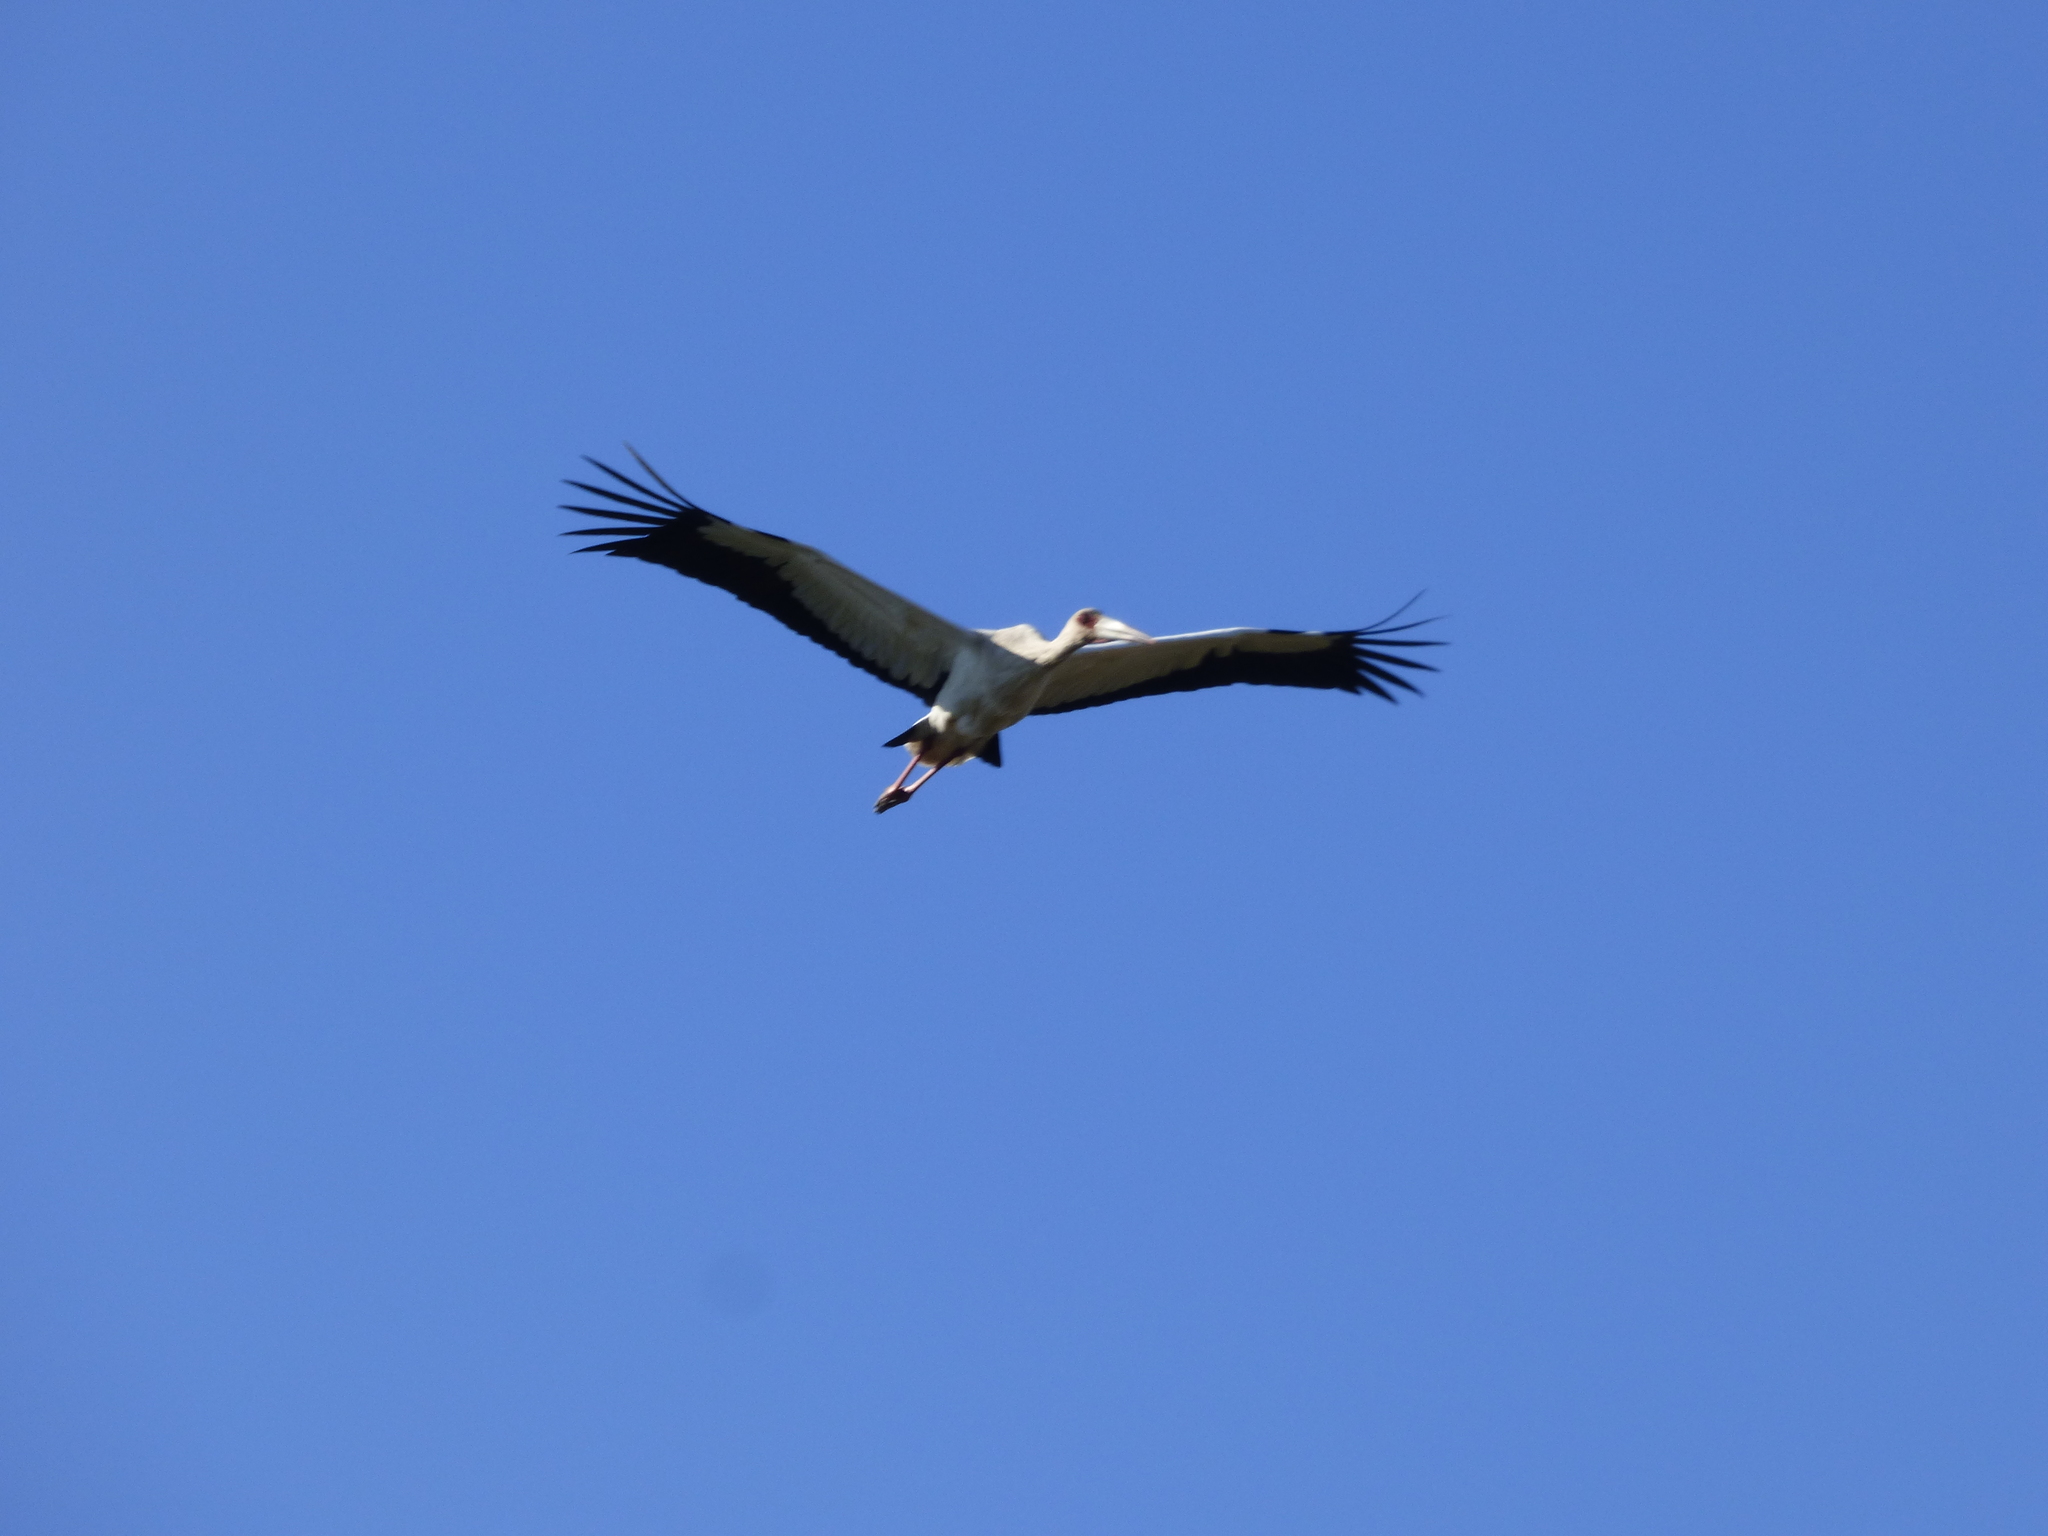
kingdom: Animalia
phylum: Chordata
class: Aves
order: Ciconiiformes
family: Ciconiidae
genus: Ciconia
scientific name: Ciconia maguari
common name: Maguari stork
